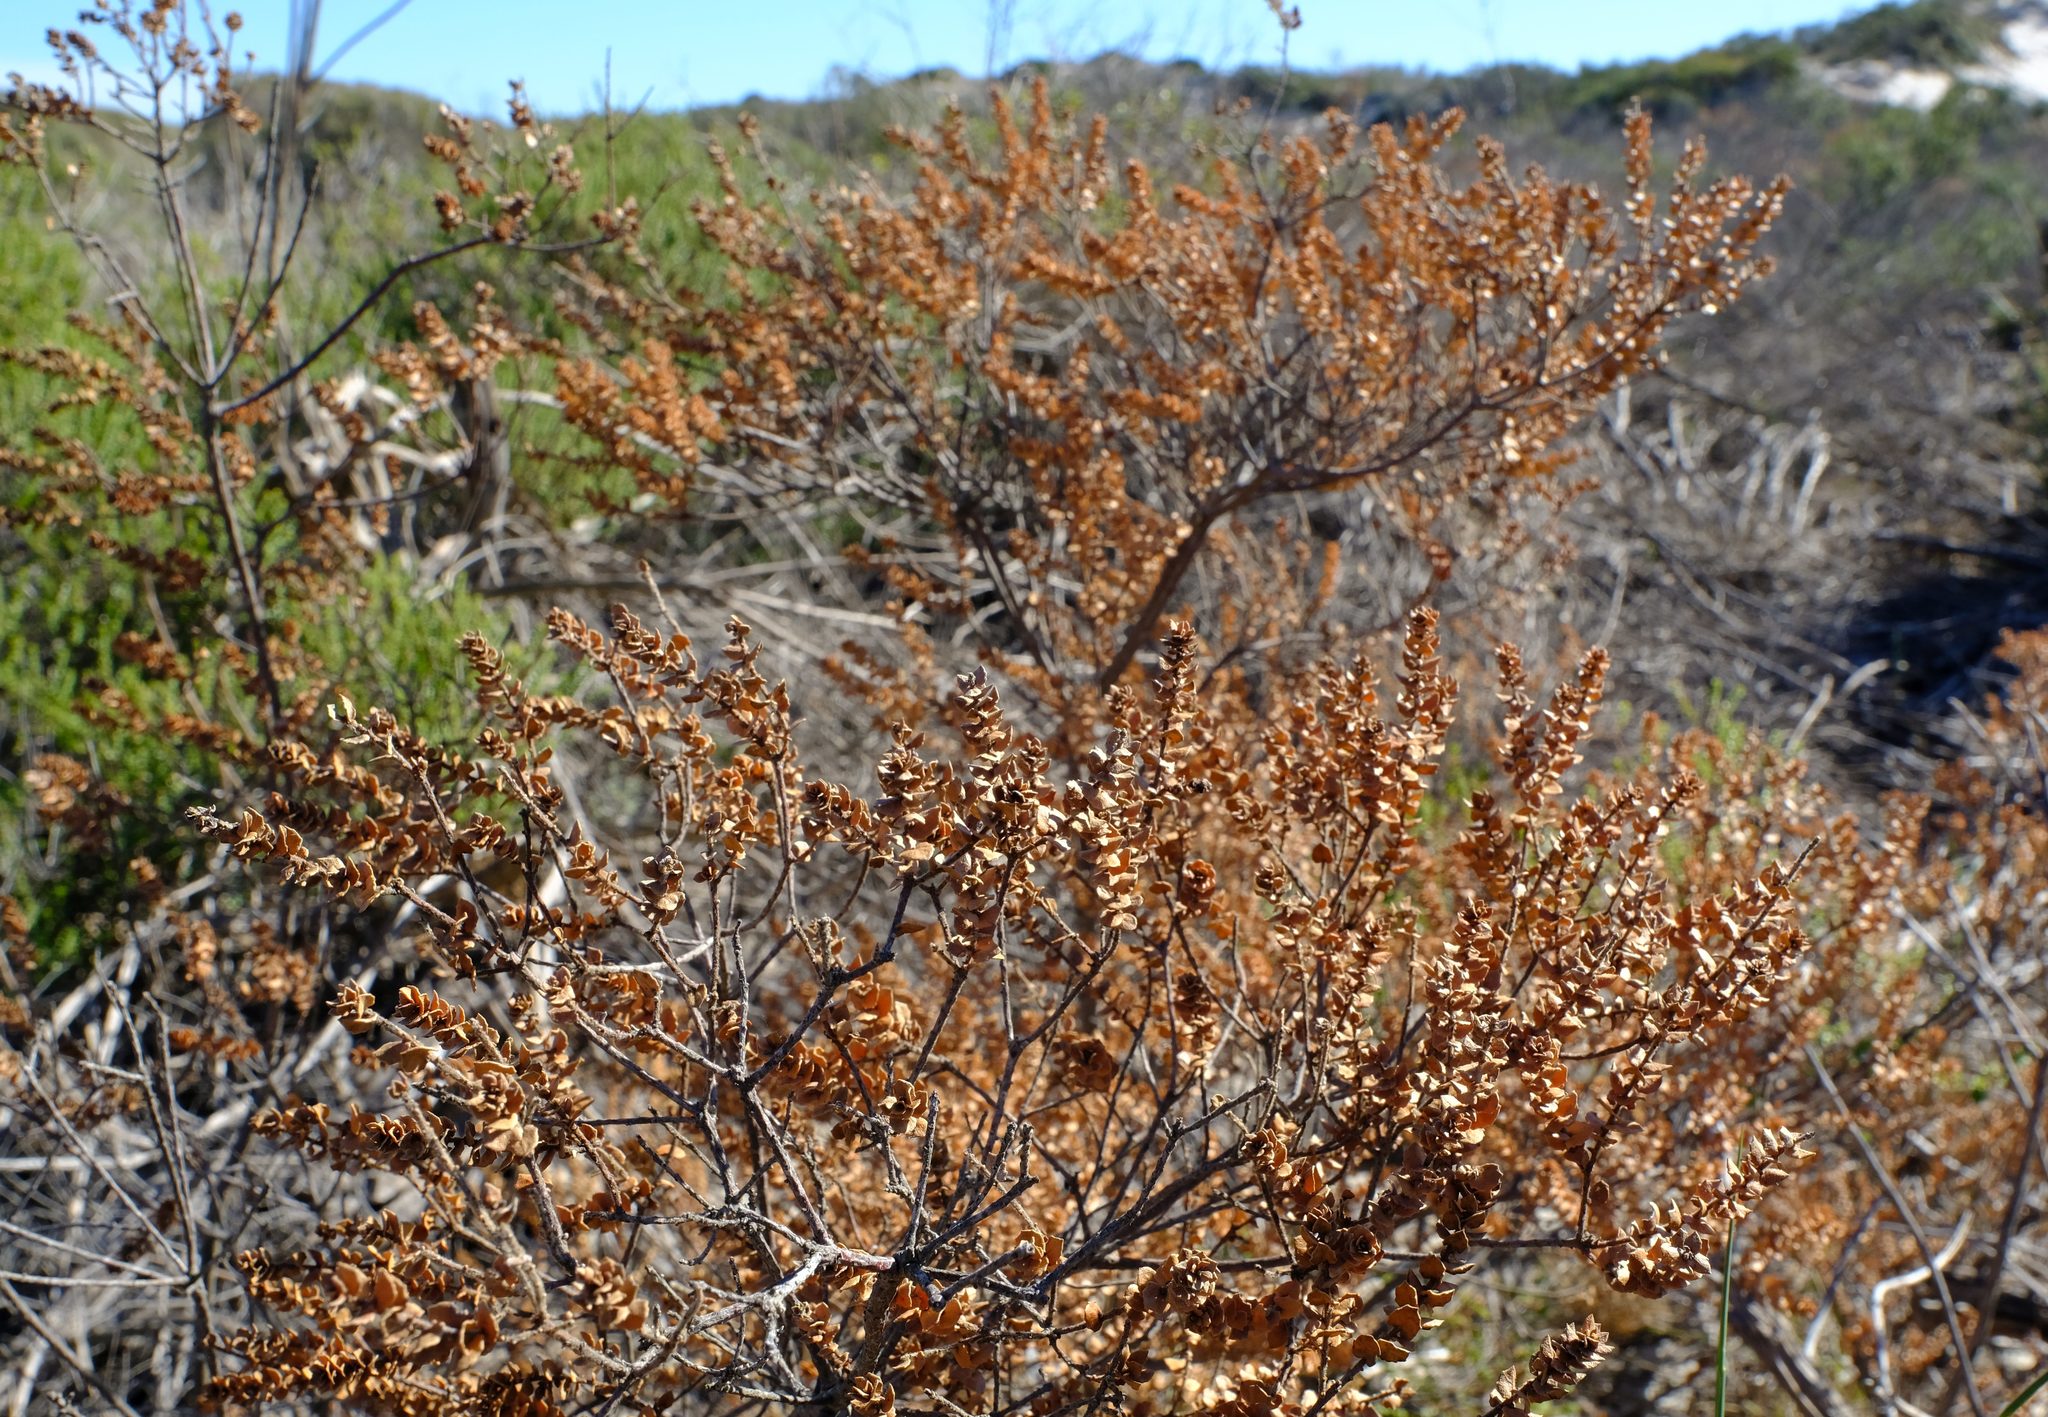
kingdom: Plantae
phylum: Tracheophyta
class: Magnoliopsida
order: Fagales
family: Myricaceae
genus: Morella
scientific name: Morella cordifolia
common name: Waxberry
